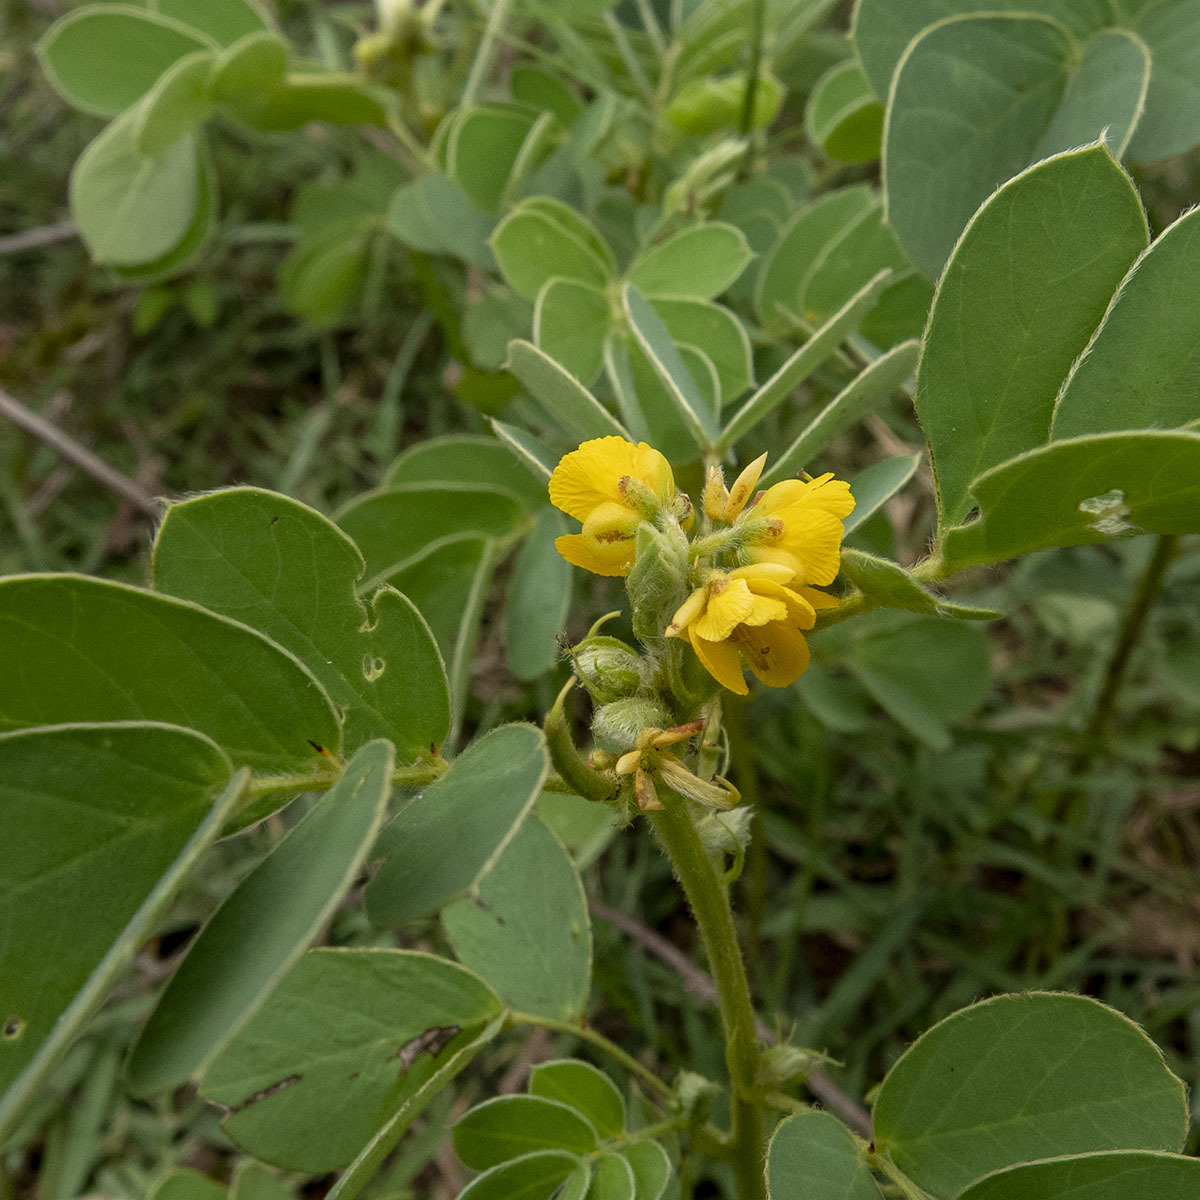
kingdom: Plantae
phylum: Tracheophyta
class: Magnoliopsida
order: Fabales
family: Fabaceae
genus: Senna
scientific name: Senna uniflora
